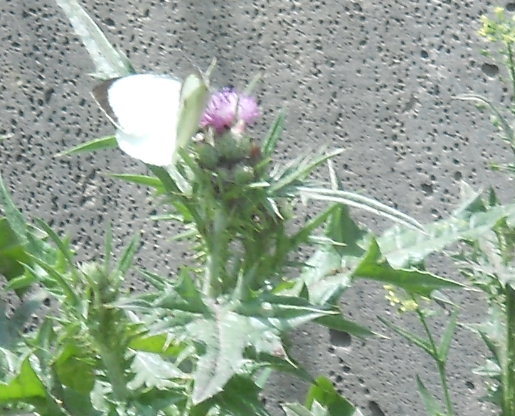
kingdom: Animalia
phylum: Arthropoda
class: Insecta
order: Lepidoptera
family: Pieridae
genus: Pieris
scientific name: Pieris brassicae
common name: Large white
